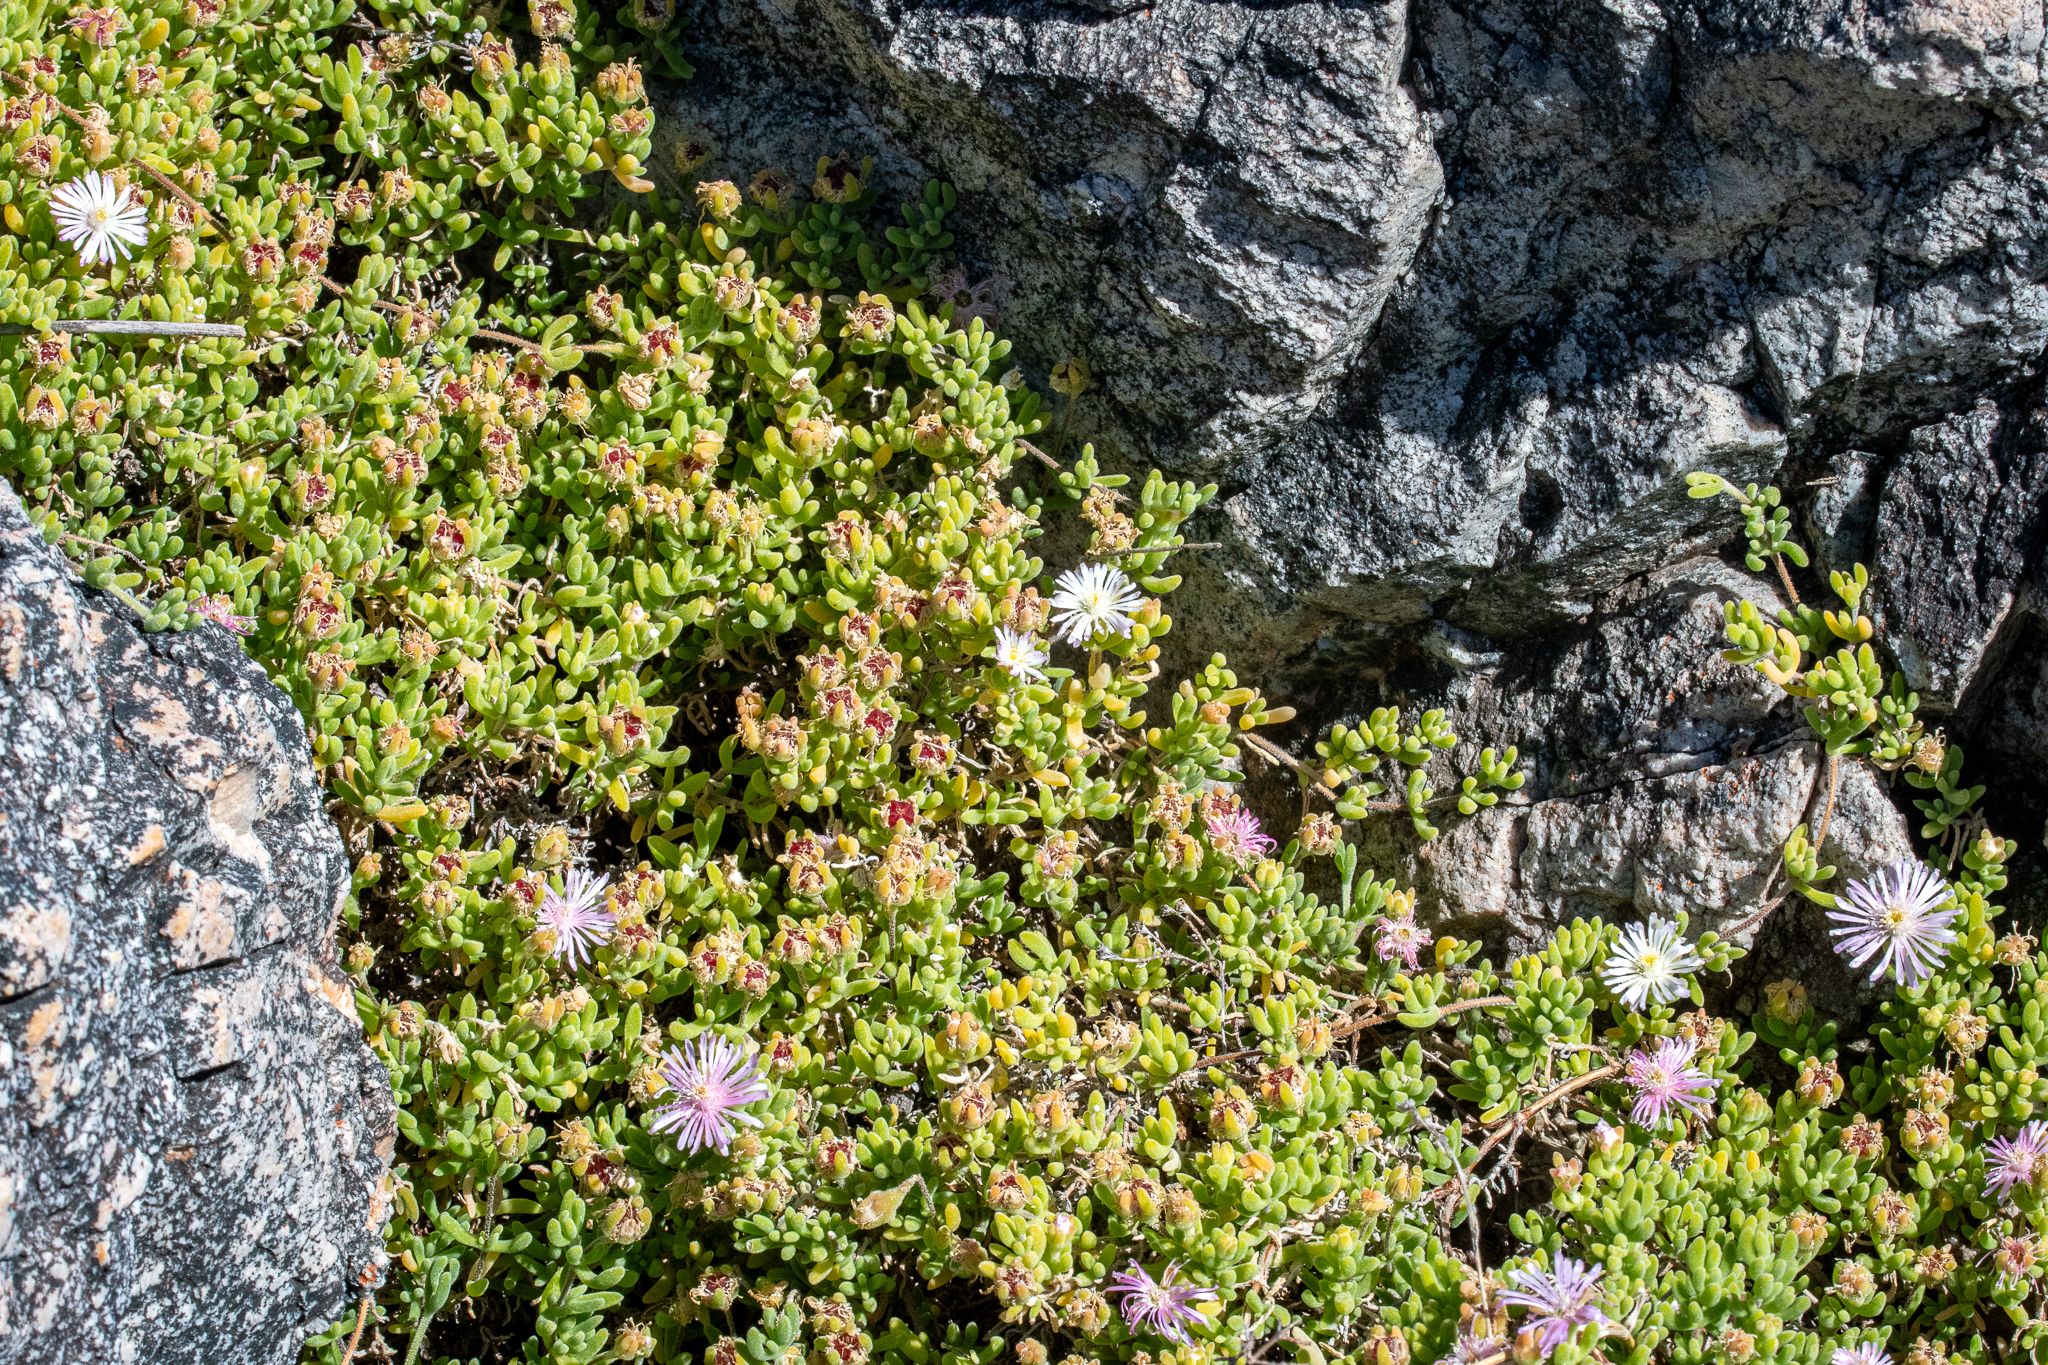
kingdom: Plantae
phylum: Tracheophyta
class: Magnoliopsida
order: Caryophyllales
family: Aizoaceae
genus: Drosanthemum
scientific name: Drosanthemum candens
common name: Rodondo-creeper
